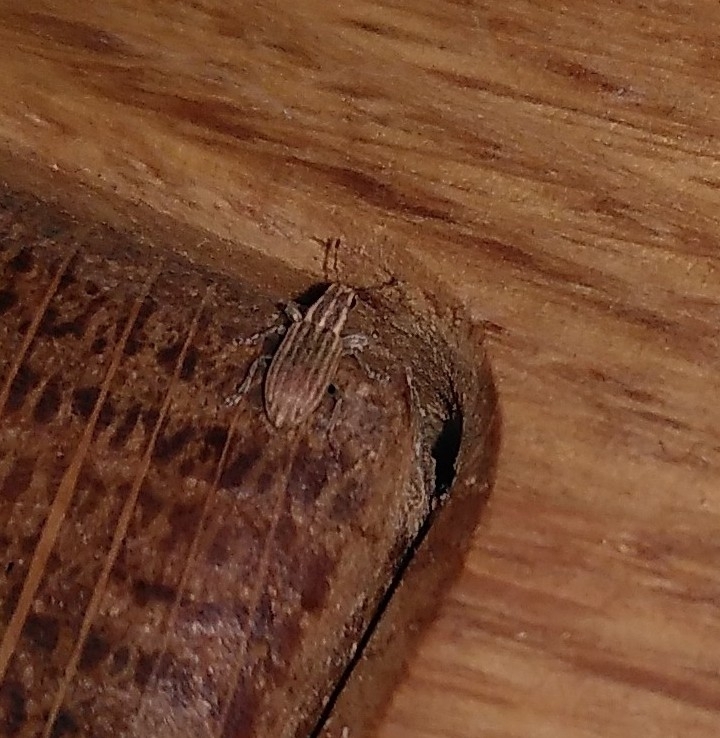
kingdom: Animalia
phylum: Arthropoda
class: Insecta
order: Coleoptera
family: Curculionidae
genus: Sitona
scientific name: Sitona lineatus
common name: Weevil
